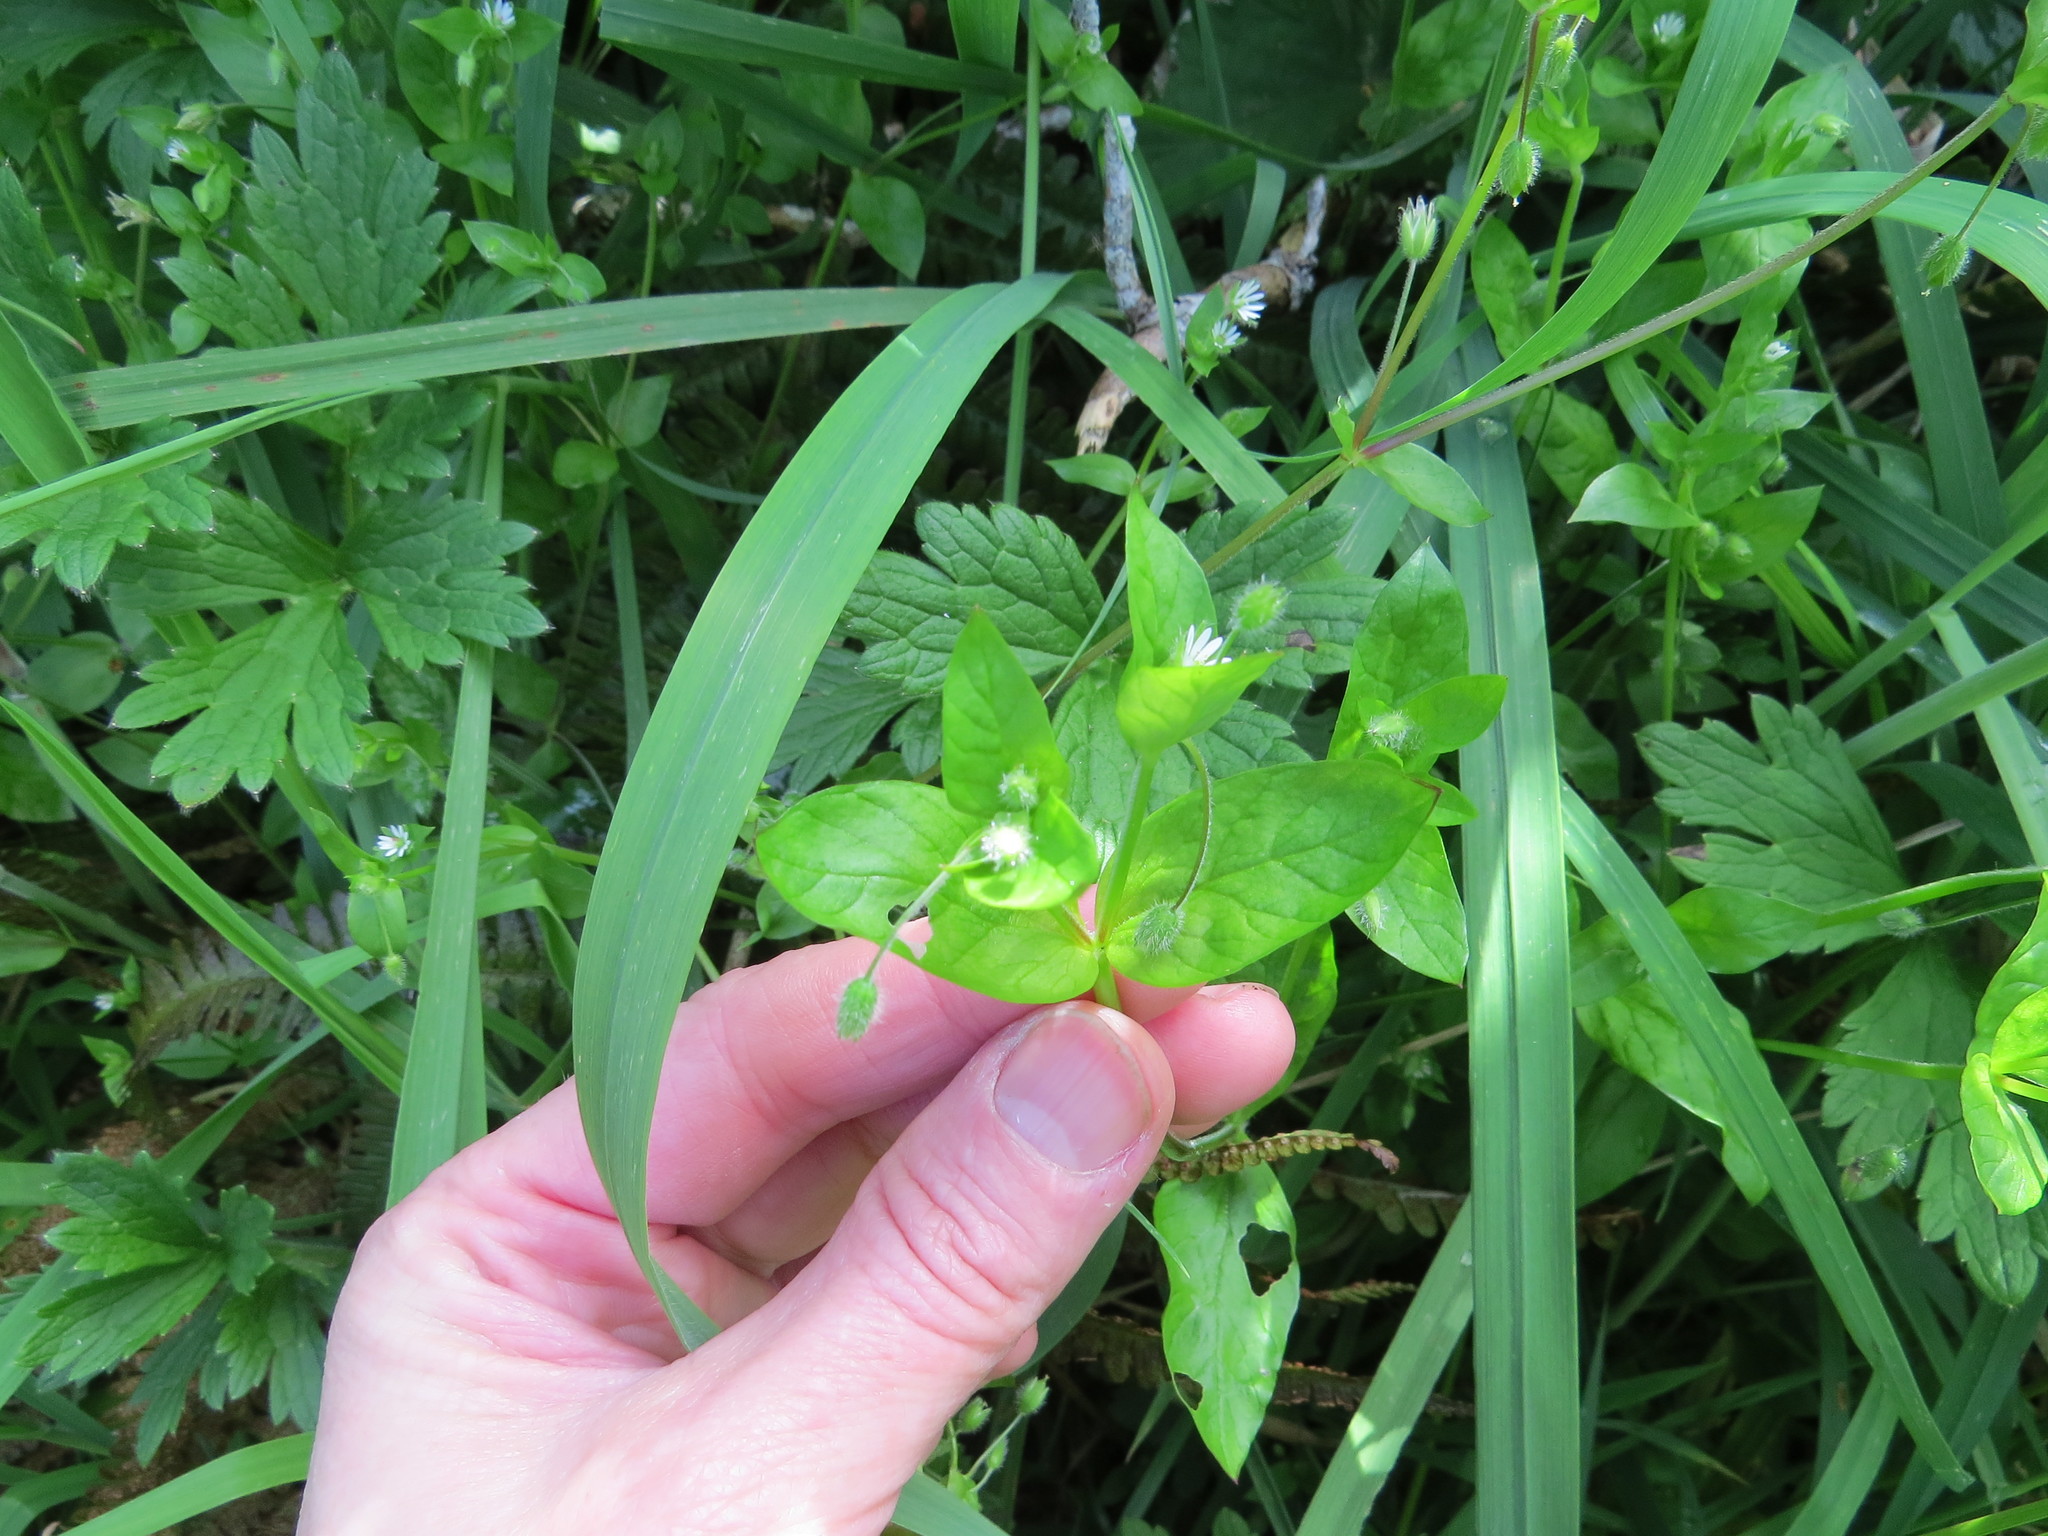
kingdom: Plantae
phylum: Tracheophyta
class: Magnoliopsida
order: Caryophyllales
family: Caryophyllaceae
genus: Stellaria
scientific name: Stellaria media
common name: Common chickweed
